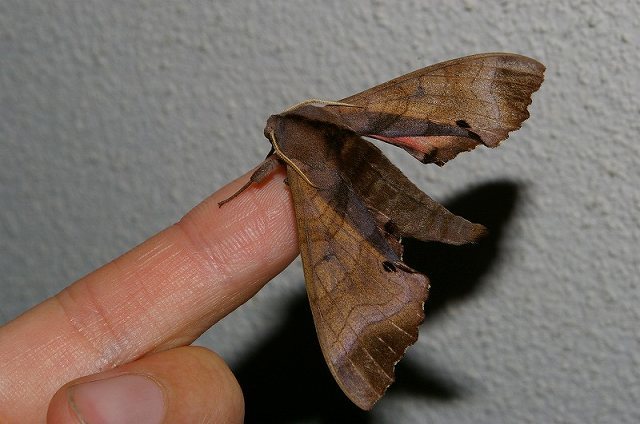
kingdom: Animalia
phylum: Arthropoda
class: Insecta
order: Lepidoptera
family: Sphingidae
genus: Marumba
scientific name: Marumba echephron
